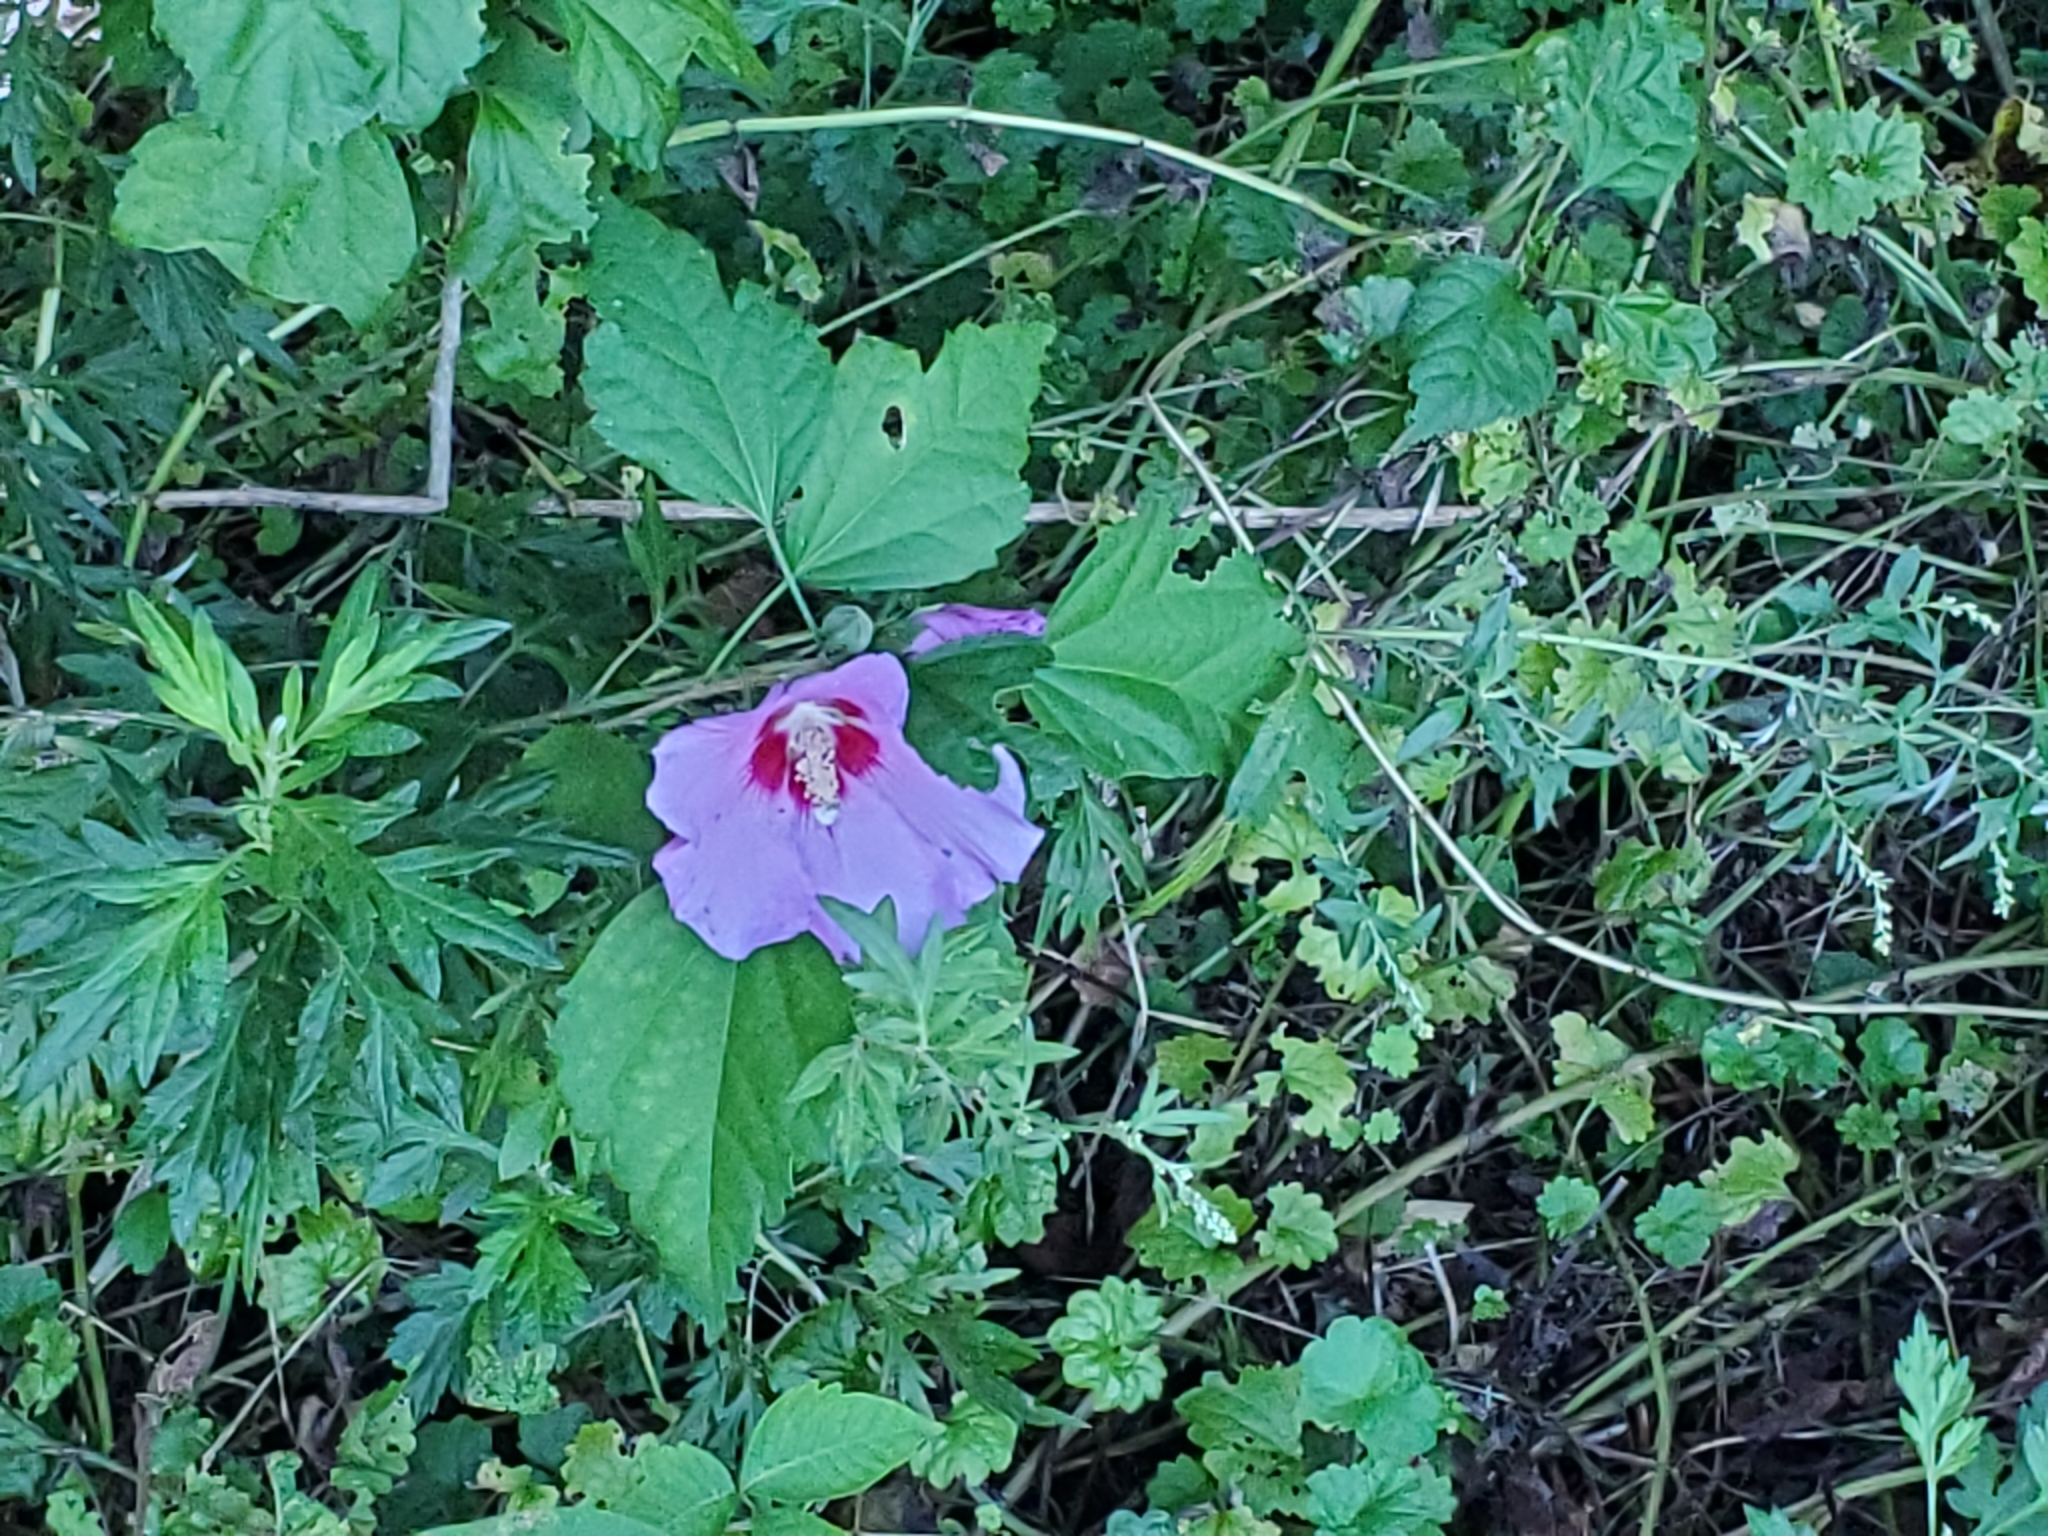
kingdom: Plantae
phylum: Tracheophyta
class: Magnoliopsida
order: Malvales
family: Malvaceae
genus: Hibiscus
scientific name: Hibiscus syriacus
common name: Syrian ketmia
